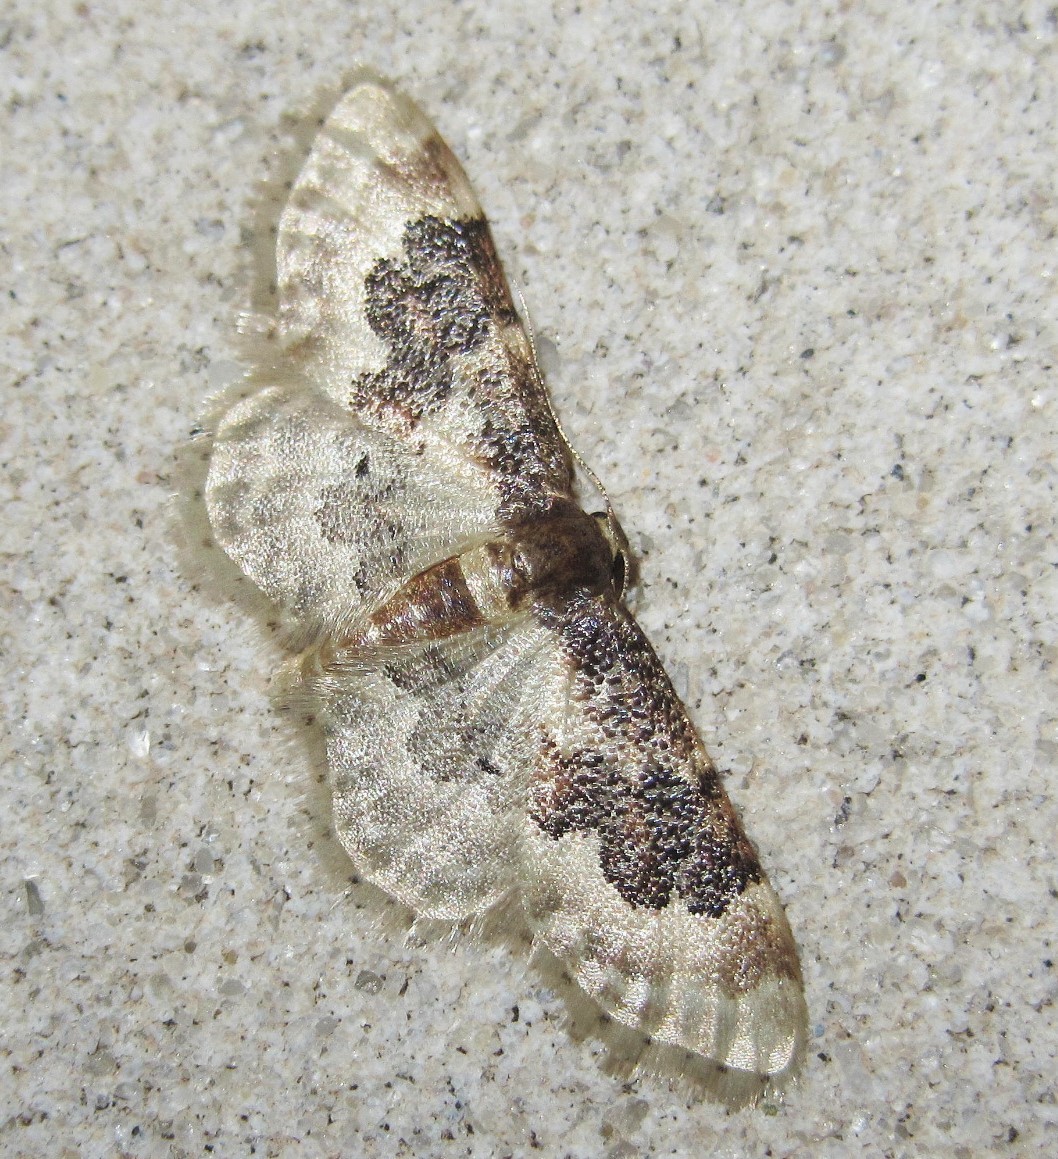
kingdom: Animalia
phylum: Arthropoda
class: Insecta
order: Lepidoptera
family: Geometridae
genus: Idaea
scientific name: Idaea rusticata
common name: Least carpet
